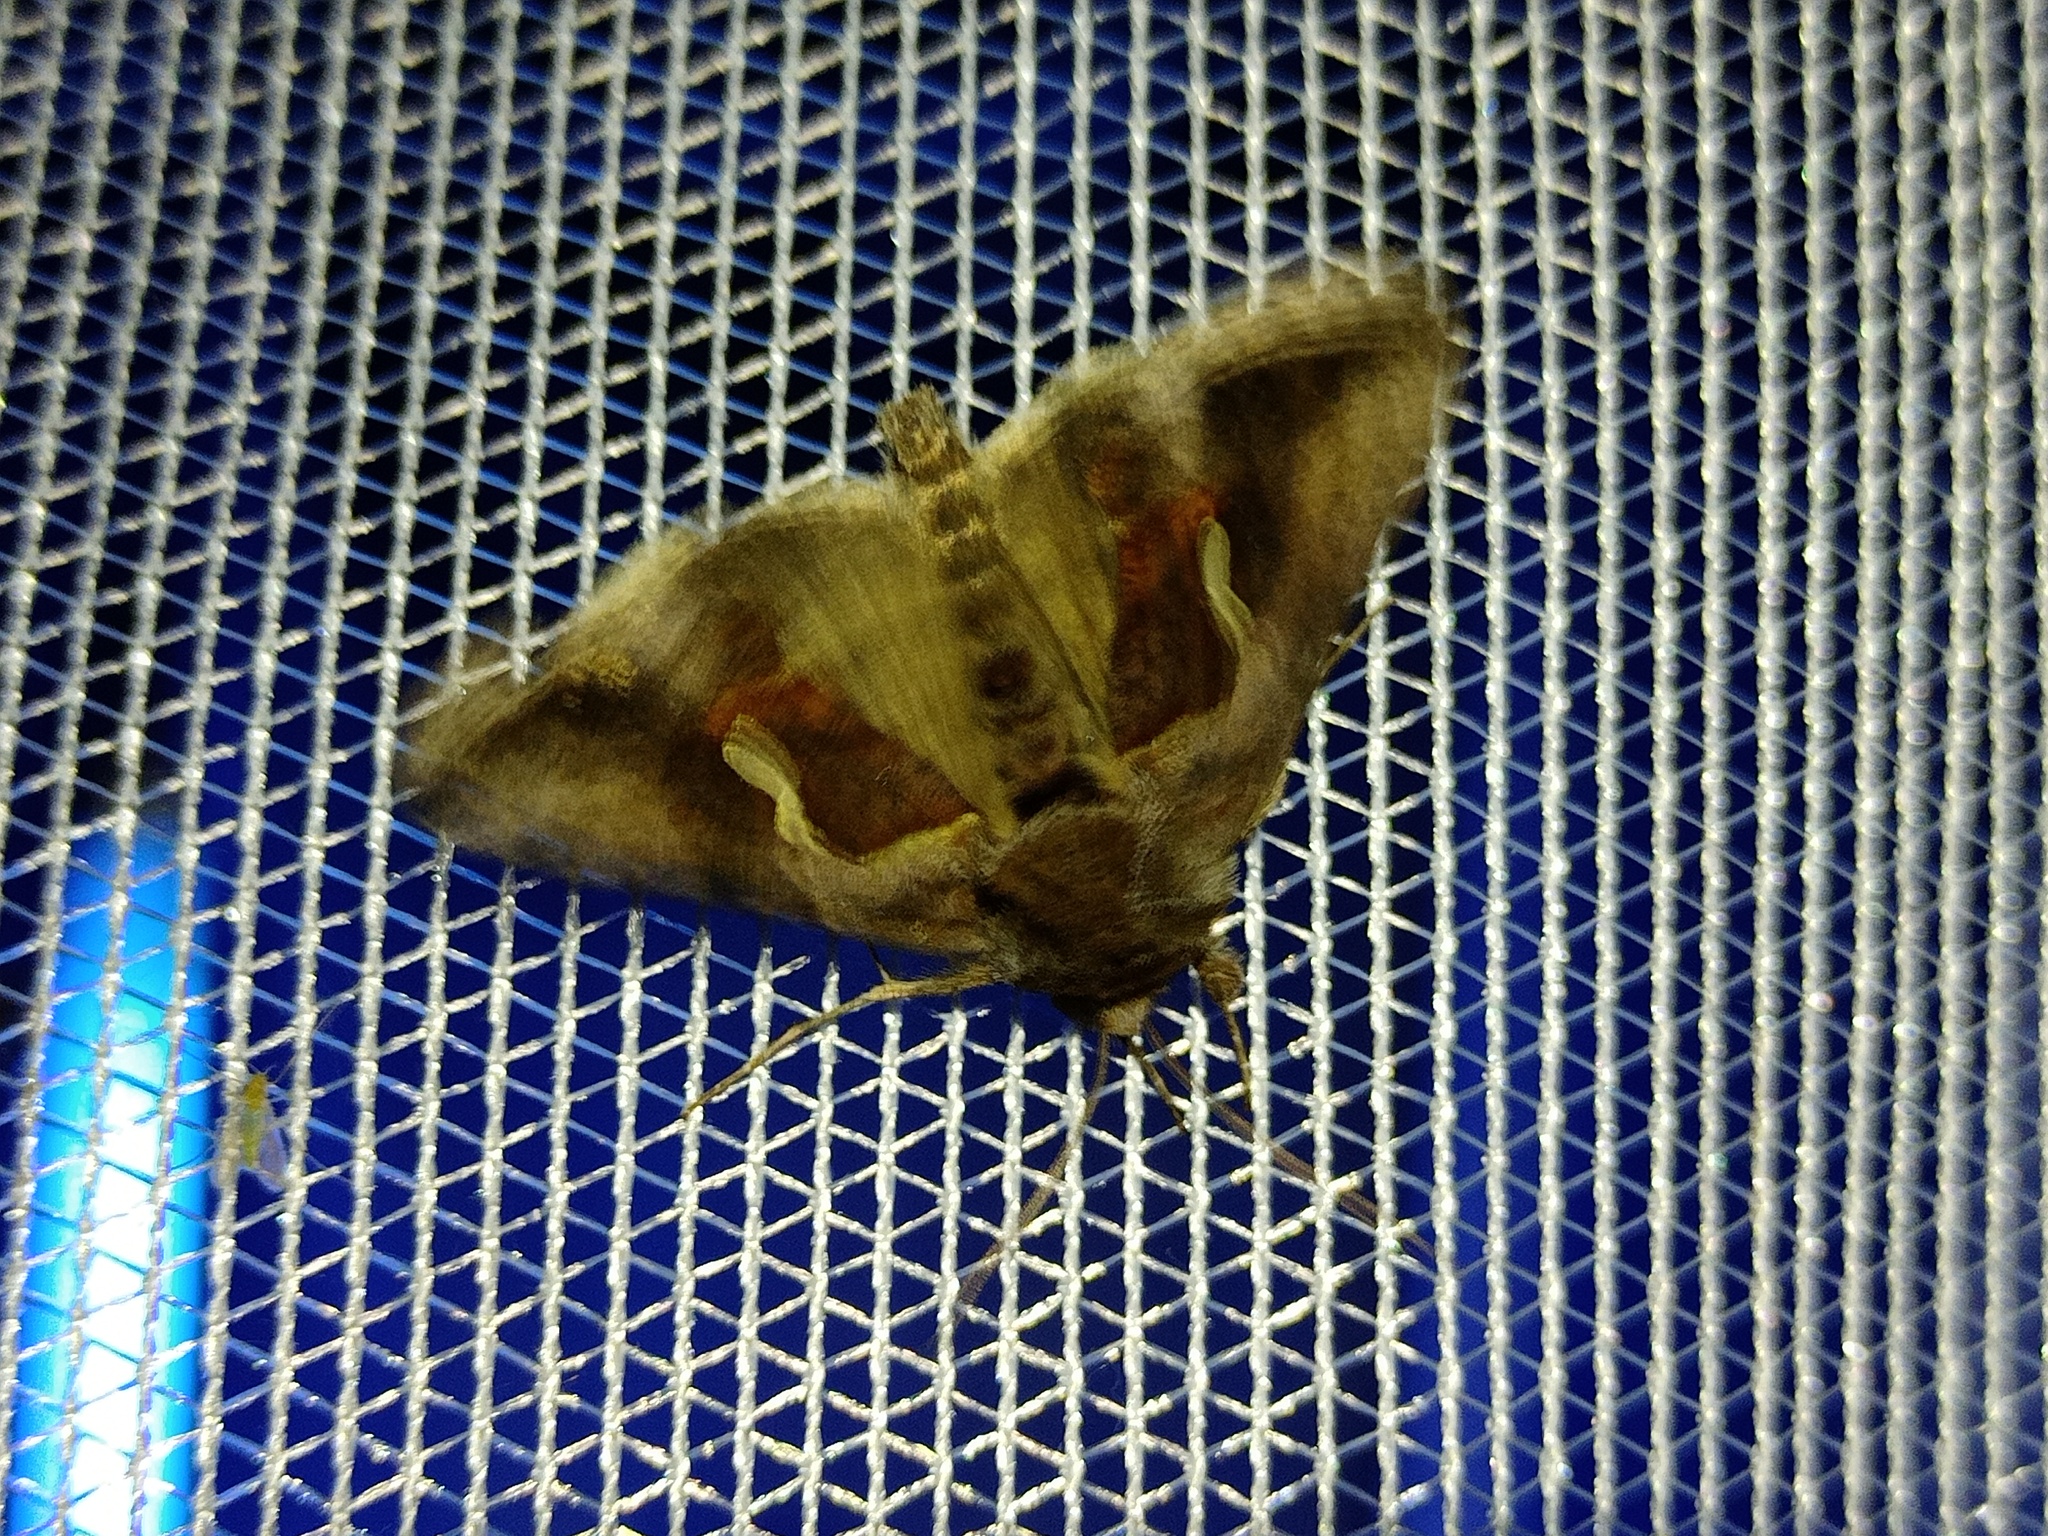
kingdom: Animalia
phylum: Arthropoda
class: Insecta
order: Lepidoptera
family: Noctuidae
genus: Macdunnoughia
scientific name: Macdunnoughia confusa
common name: Dewick's plusia
